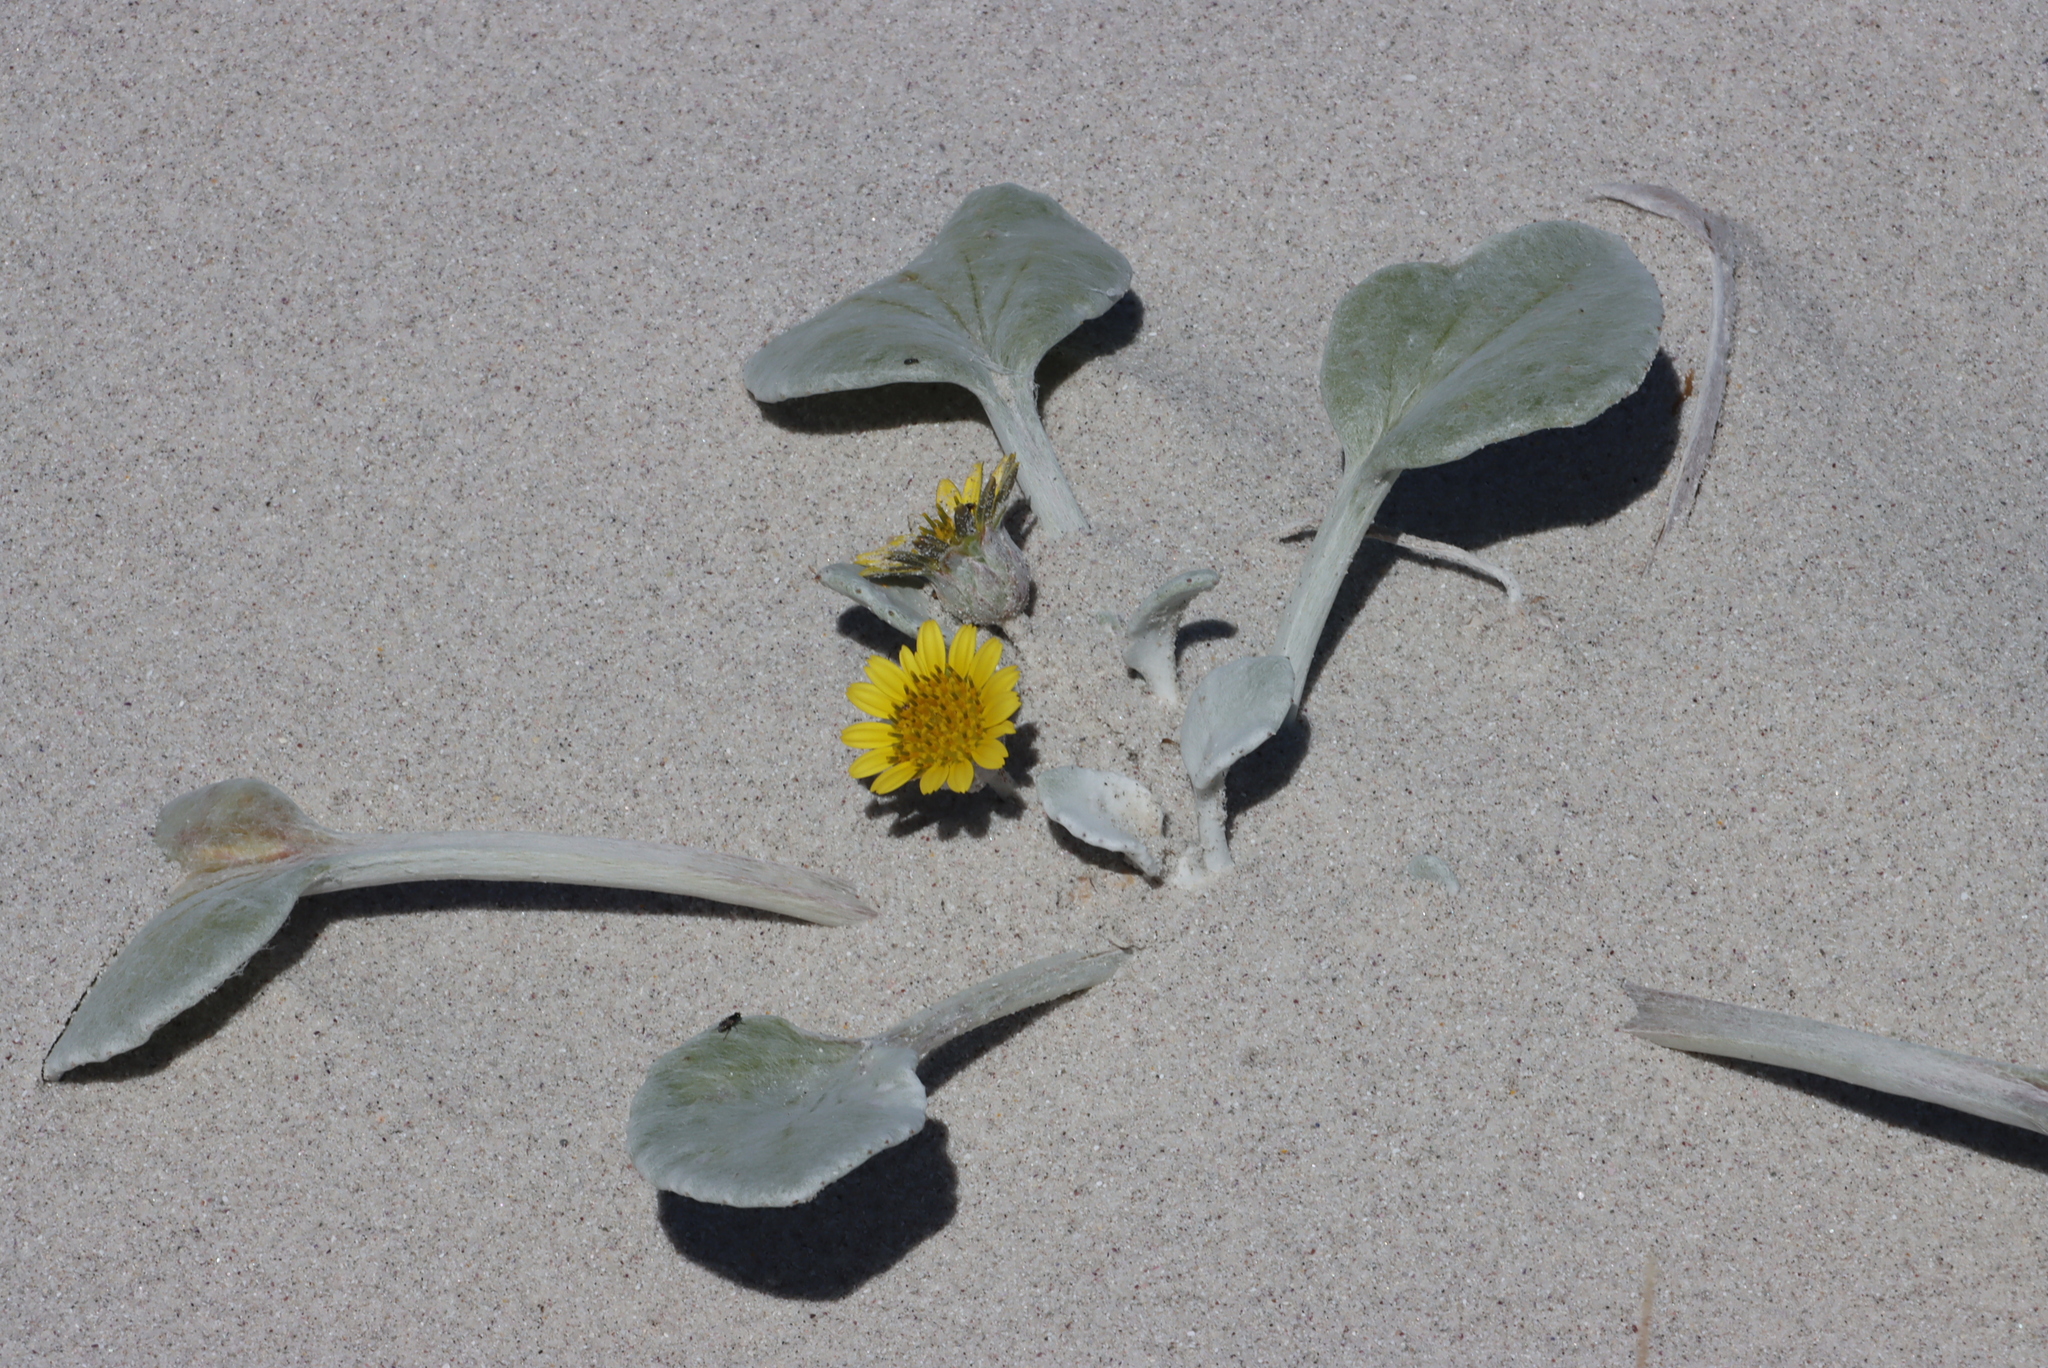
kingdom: Plantae
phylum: Tracheophyta
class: Magnoliopsida
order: Asterales
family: Asteraceae
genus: Arctotheca
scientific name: Arctotheca populifolia
